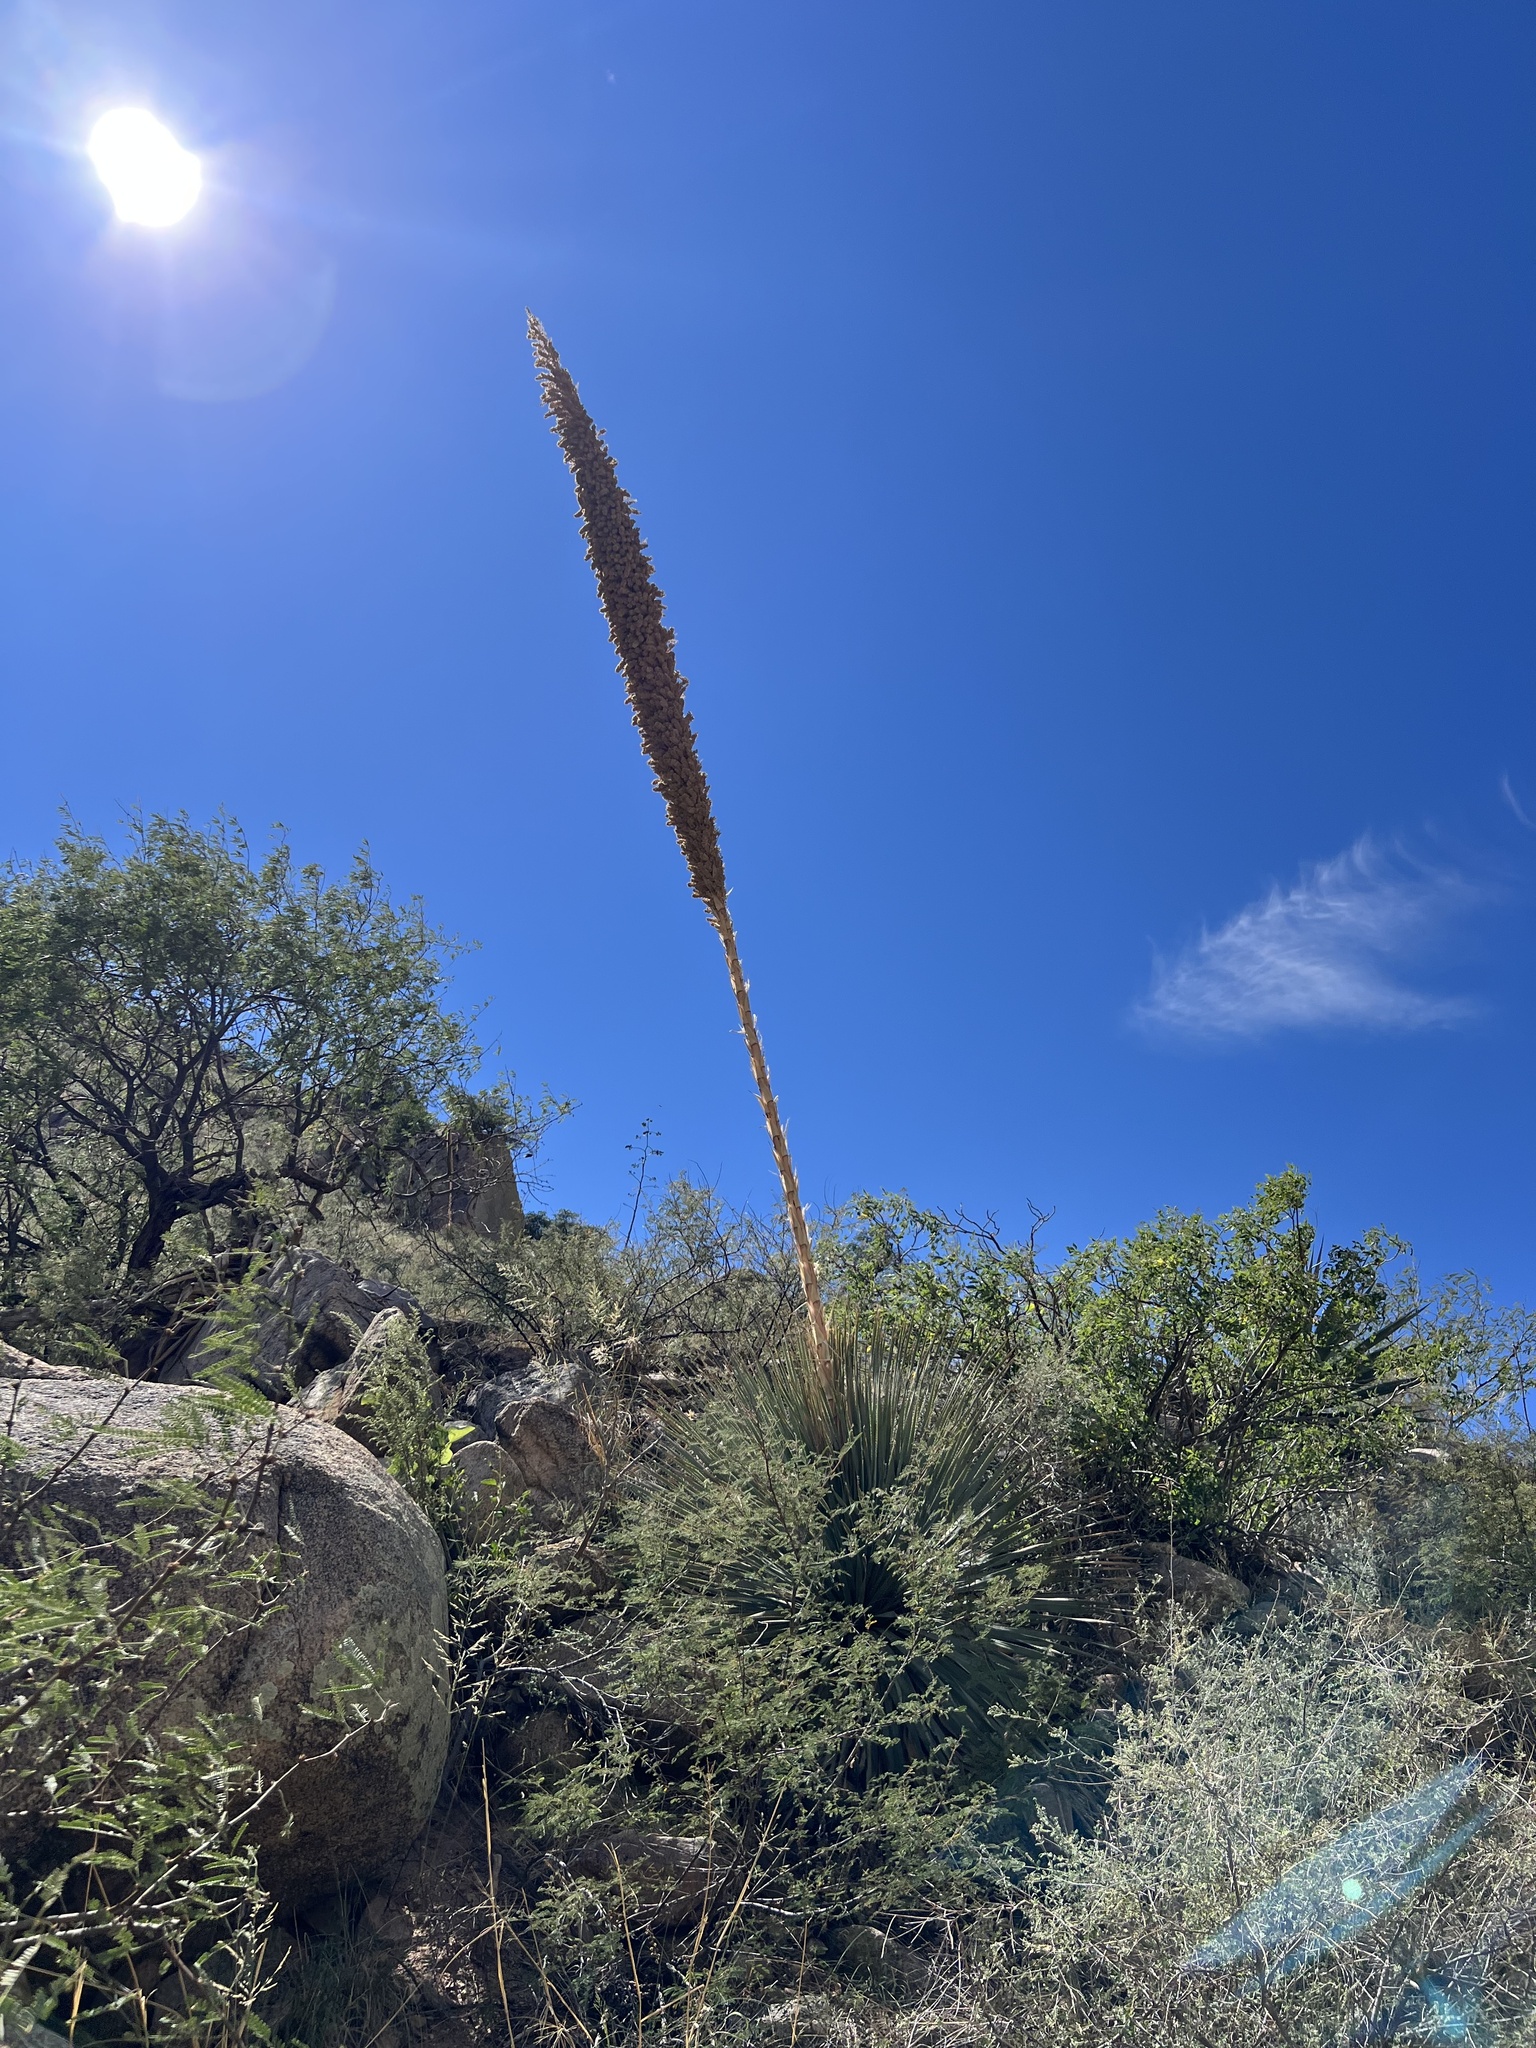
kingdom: Plantae
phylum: Tracheophyta
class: Liliopsida
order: Asparagales
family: Asparagaceae
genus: Dasylirion
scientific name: Dasylirion wheeleri
